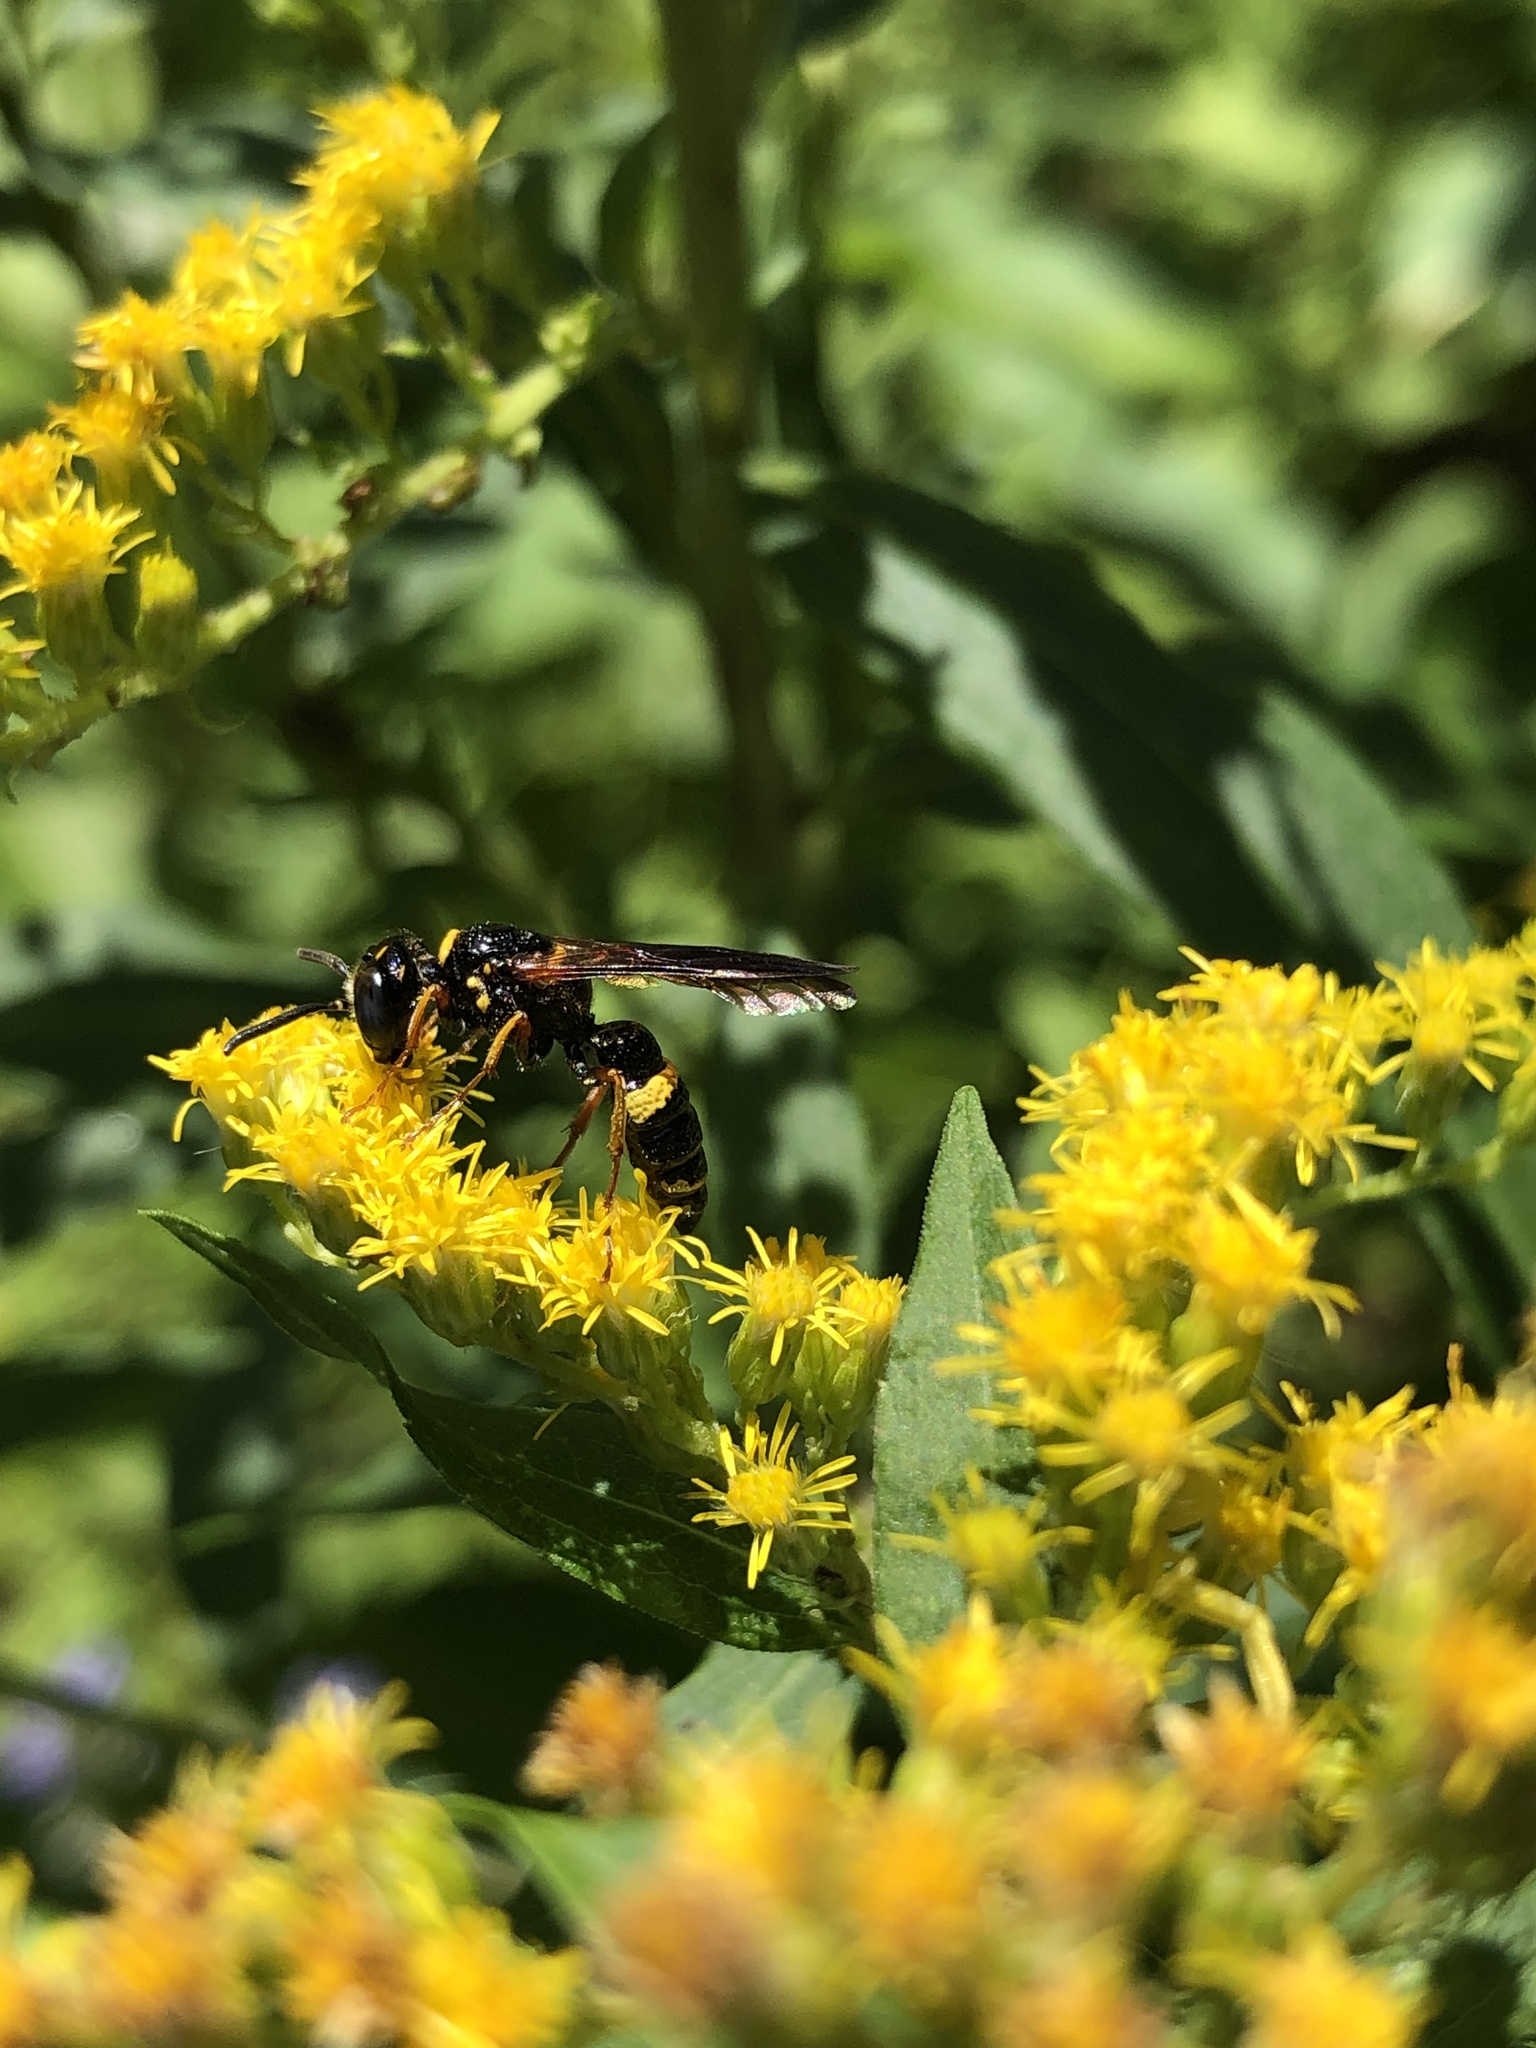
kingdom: Animalia
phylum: Arthropoda
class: Insecta
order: Hymenoptera
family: Crabronidae
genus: Philanthus
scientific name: Philanthus gibbosus
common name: Humped beewolf
